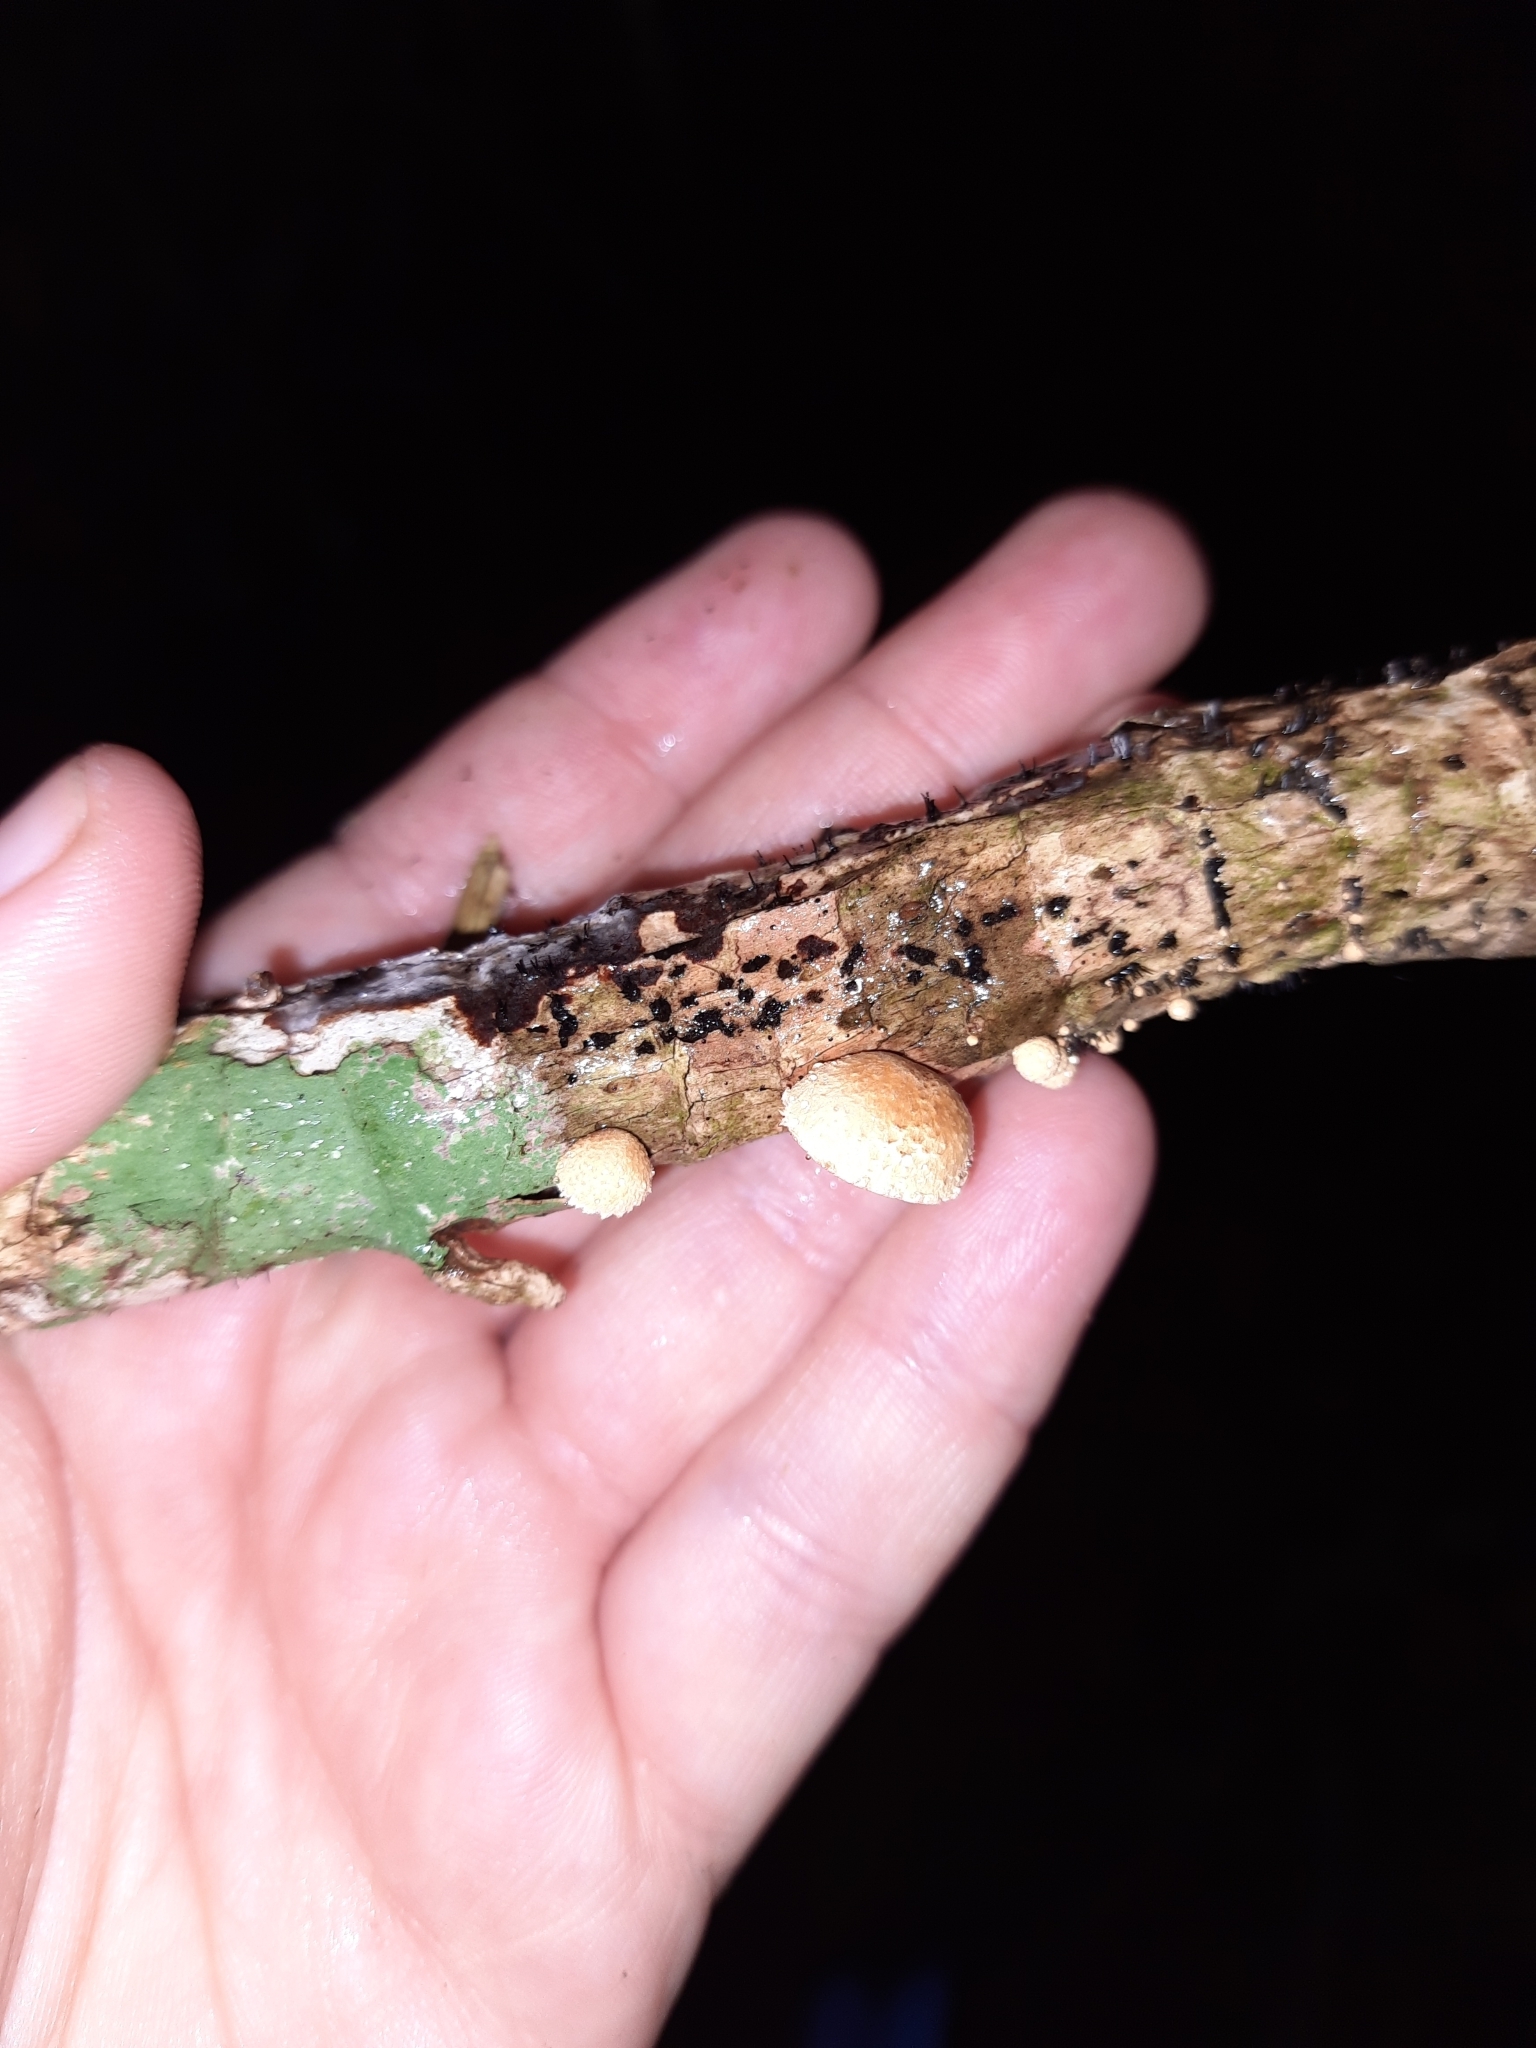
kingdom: Fungi
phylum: Basidiomycota
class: Agaricomycetes
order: Agaricales
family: Crepidotaceae
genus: Pleuroflammula
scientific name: Pleuroflammula praestans
